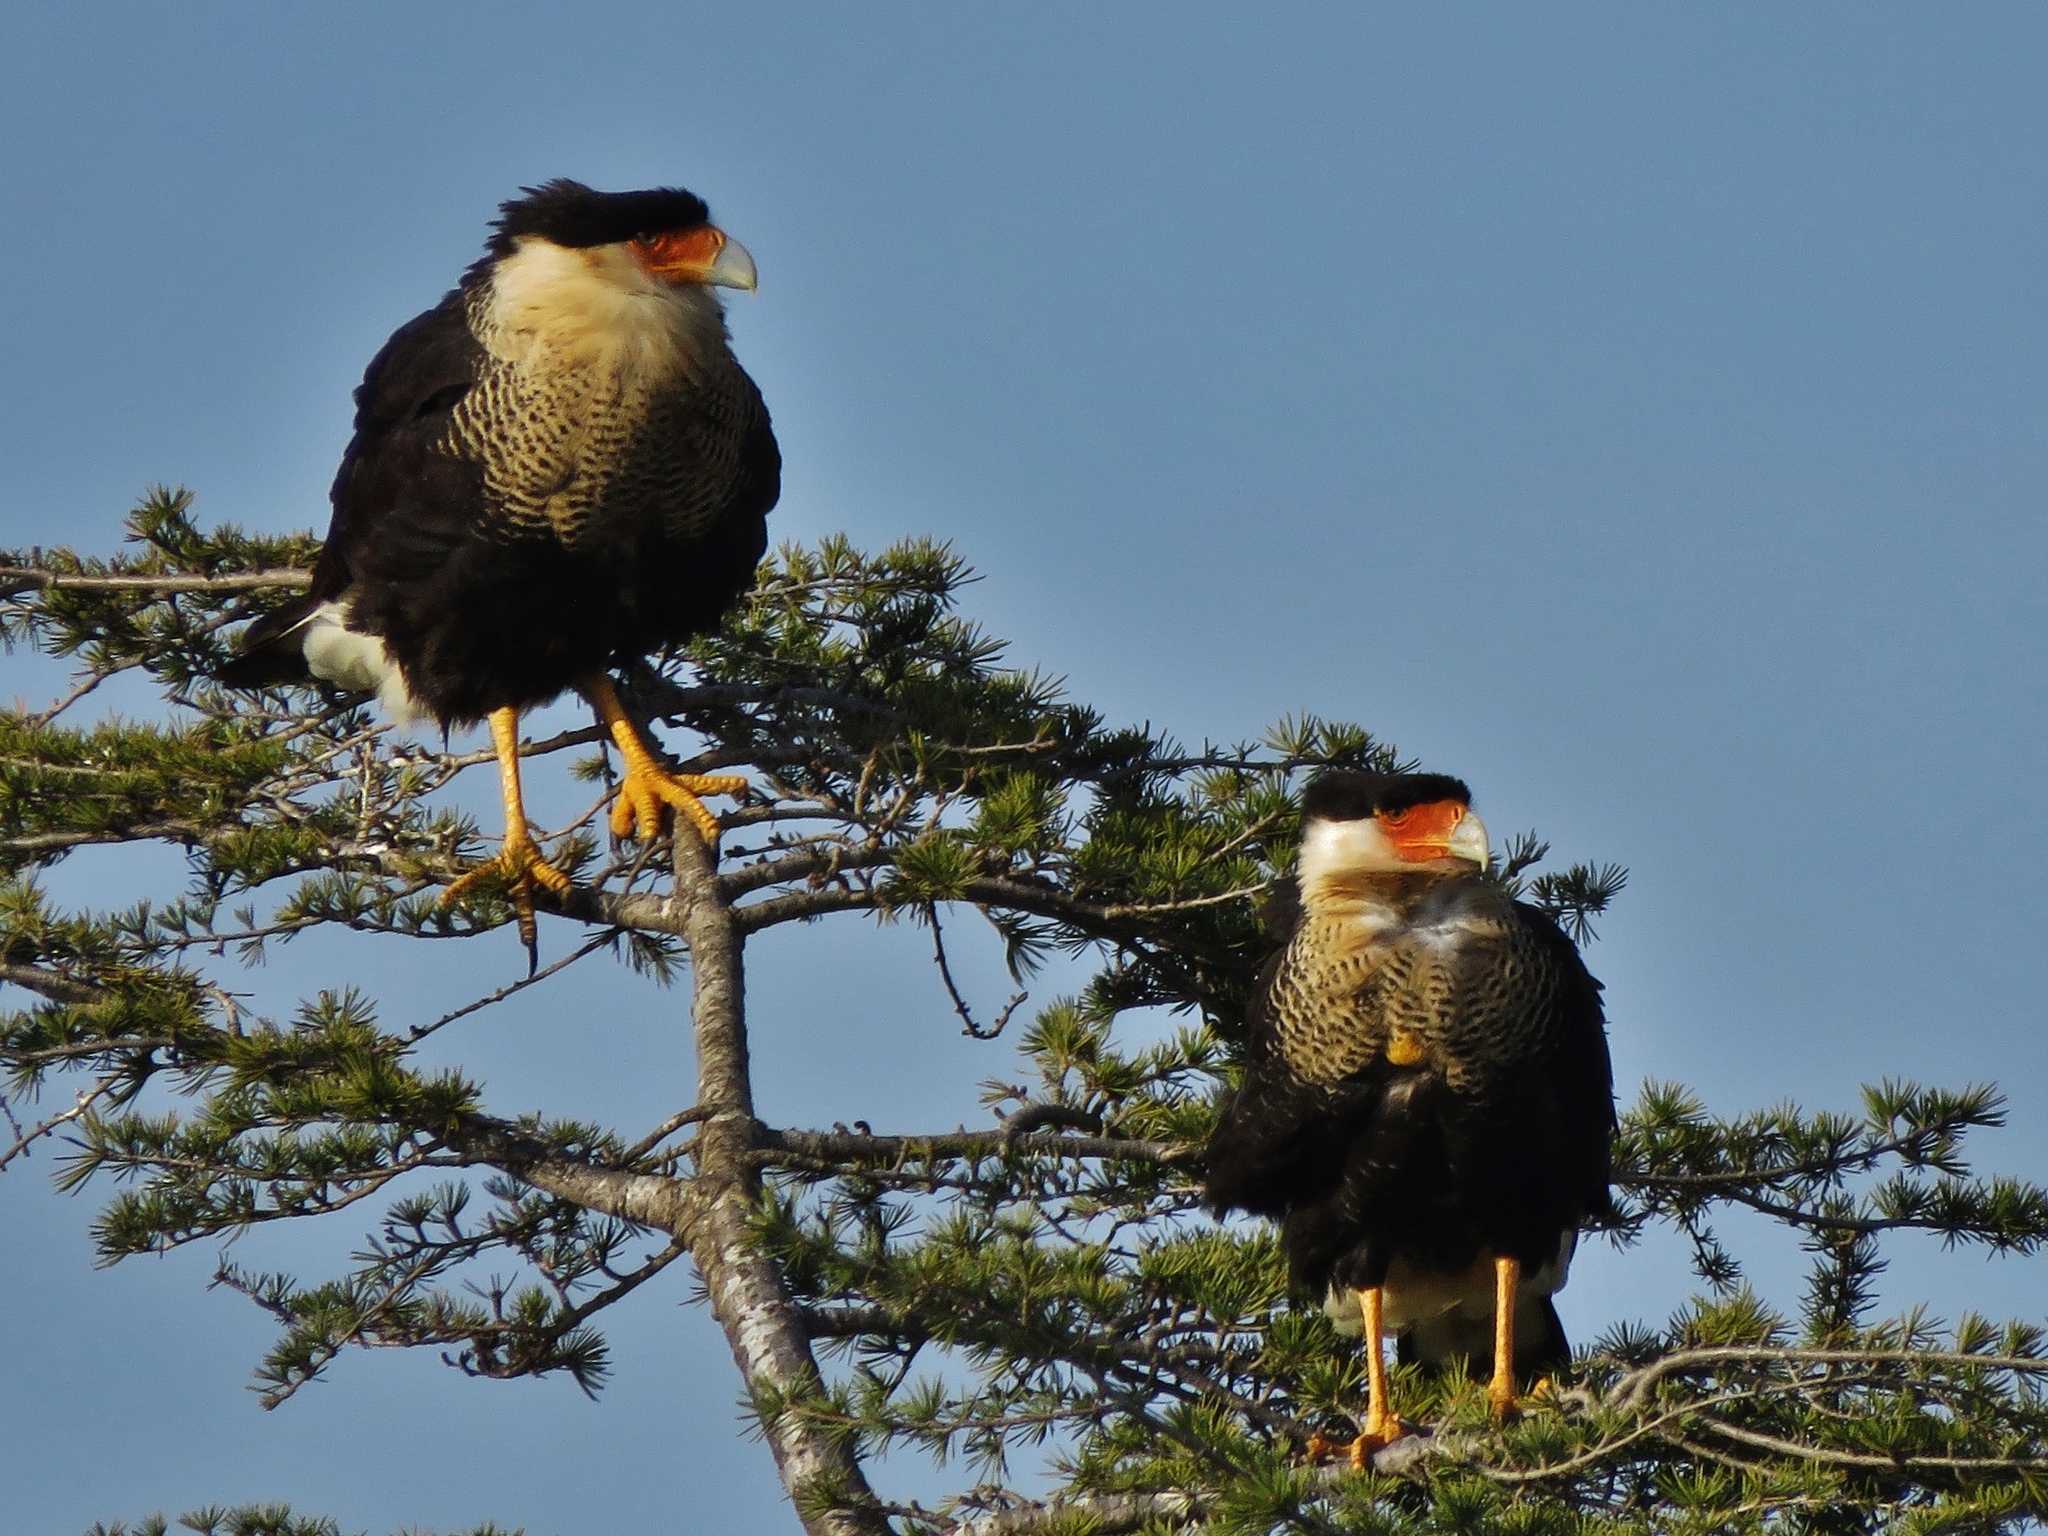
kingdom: Animalia
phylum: Chordata
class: Aves
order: Falconiformes
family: Falconidae
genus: Caracara
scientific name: Caracara plancus
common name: Southern caracara
